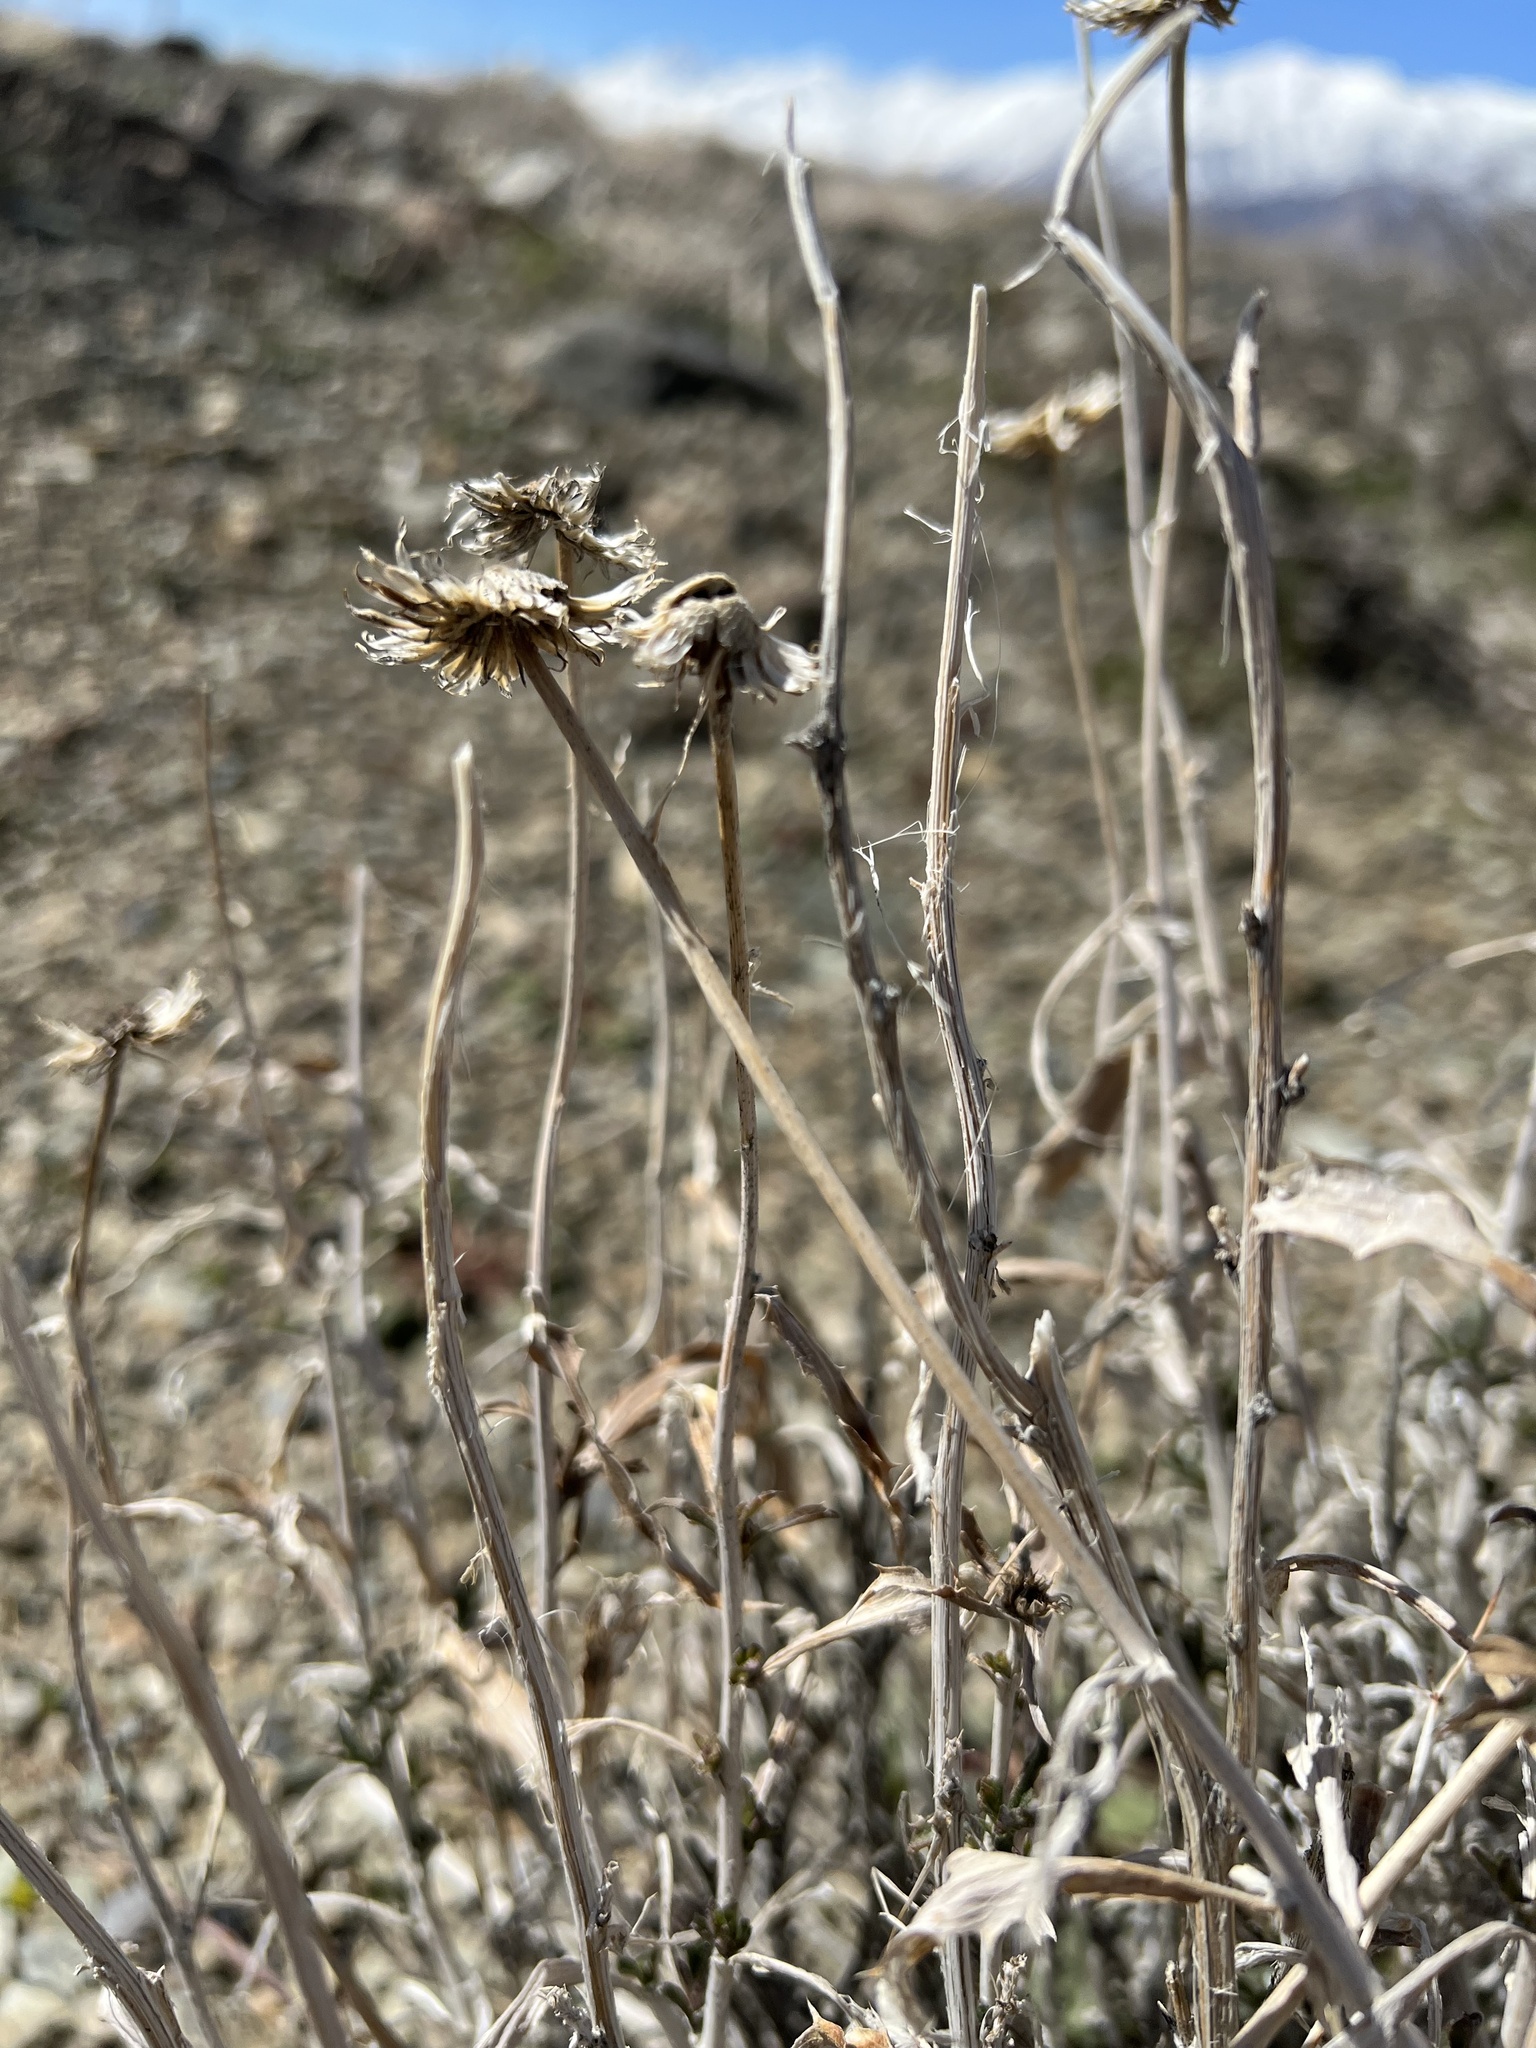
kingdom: Plantae
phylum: Tracheophyta
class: Magnoliopsida
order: Asterales
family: Asteraceae
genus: Xylorhiza
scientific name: Xylorhiza tortifolia
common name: Hurt-leaf woody-aster
